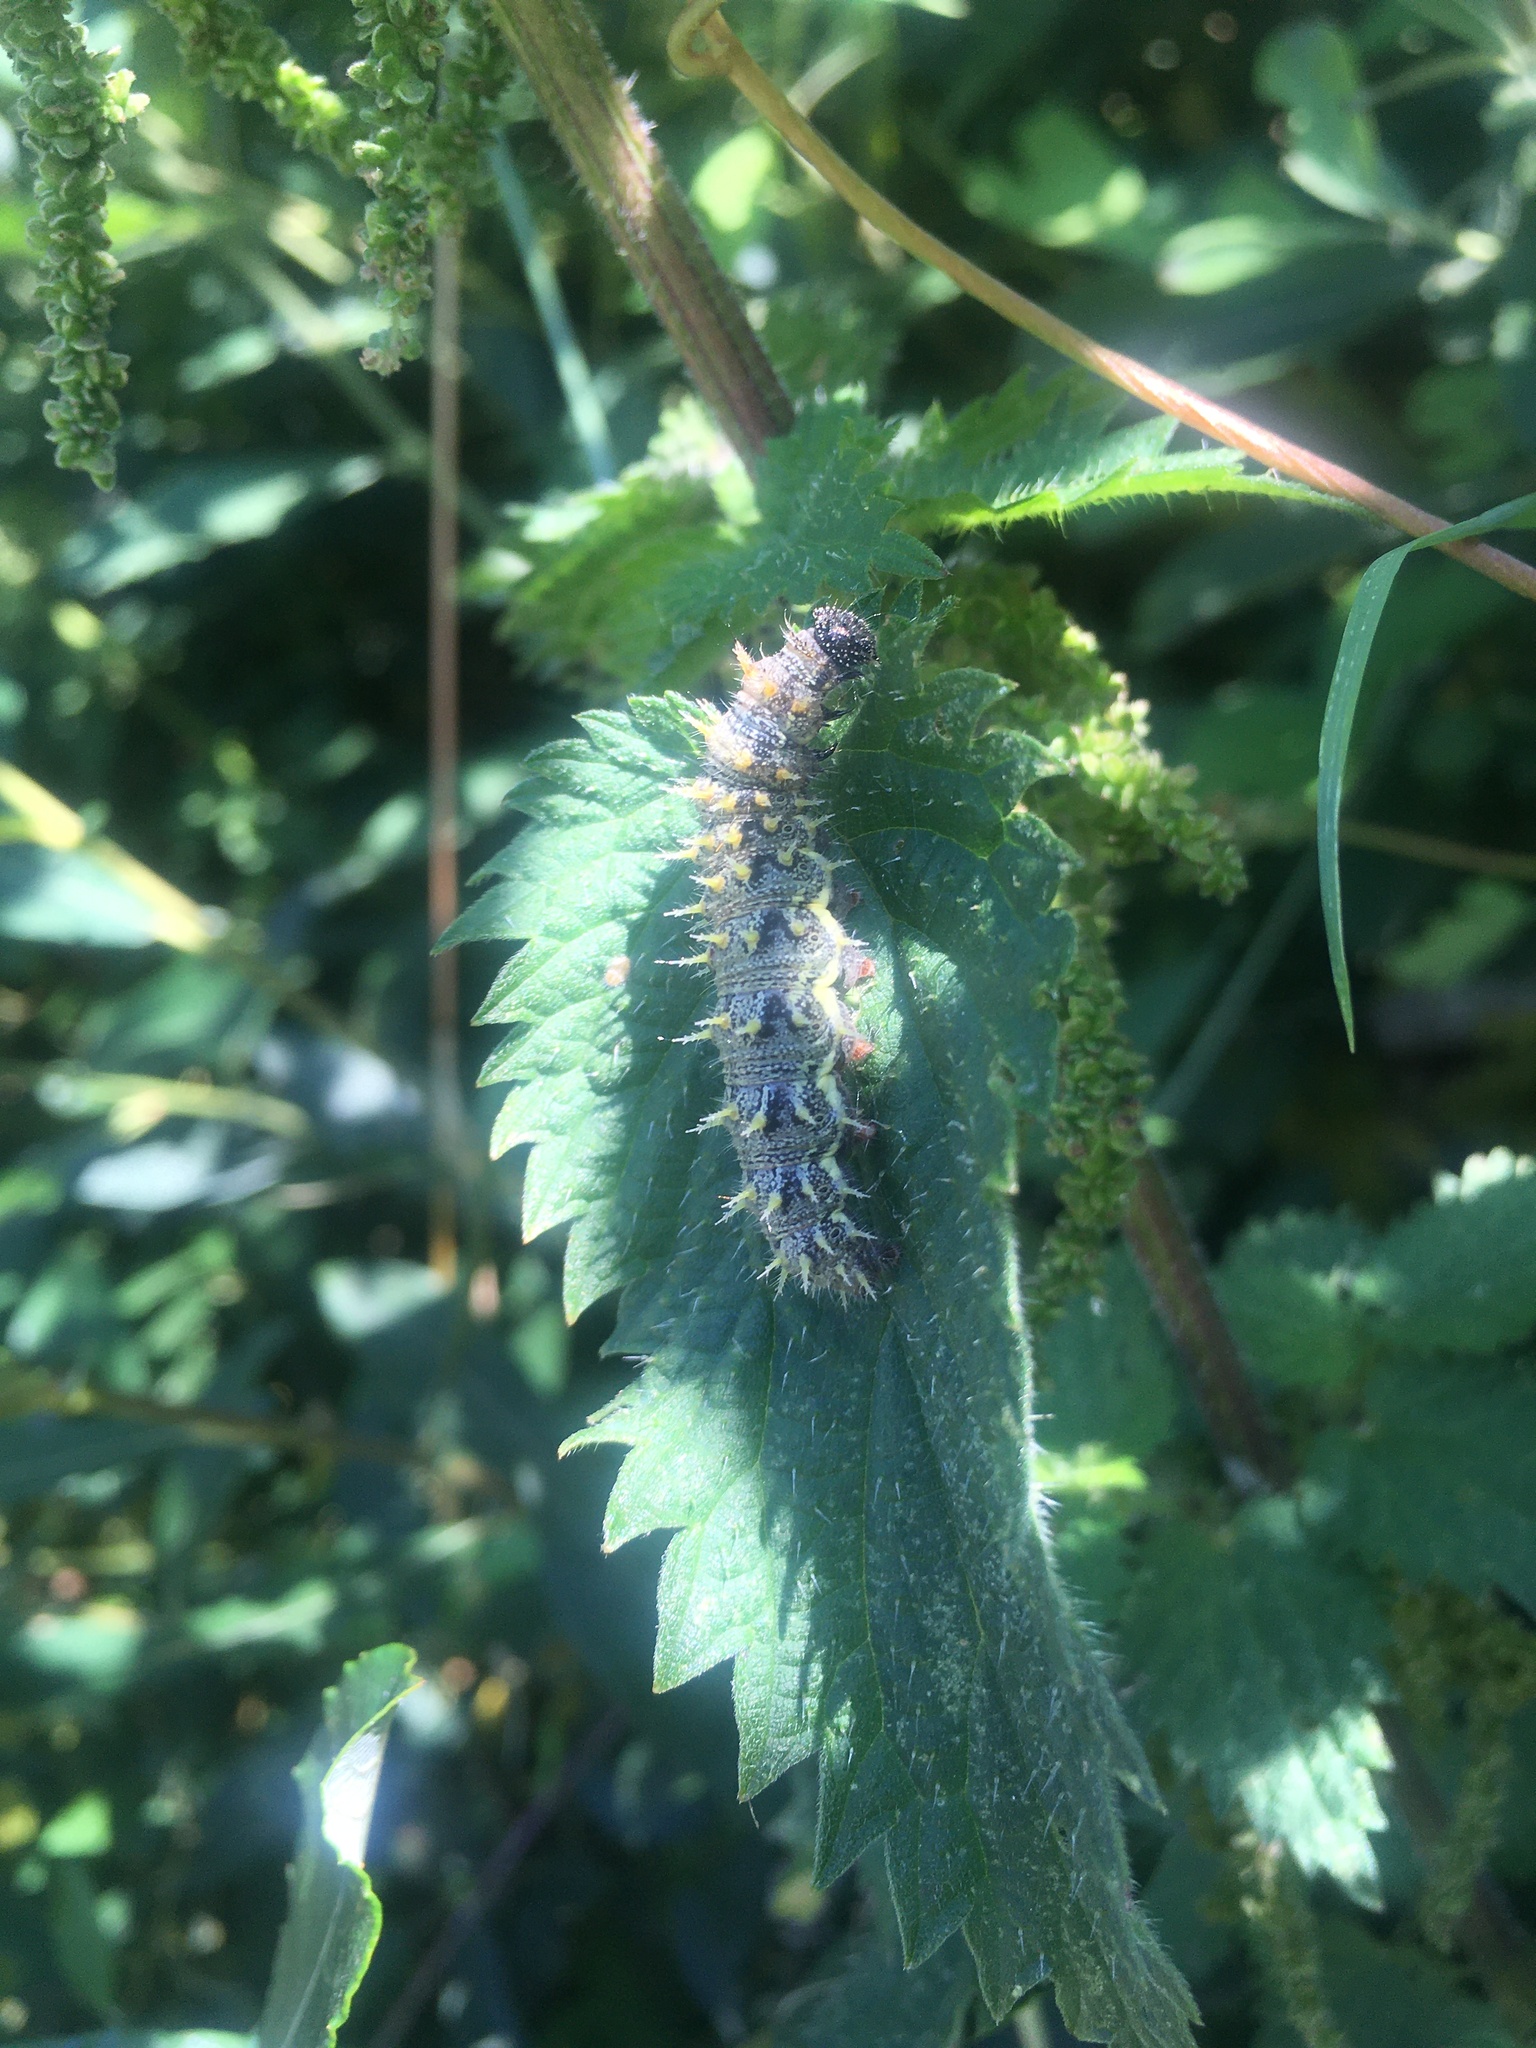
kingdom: Animalia
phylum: Arthropoda
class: Insecta
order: Lepidoptera
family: Nymphalidae
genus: Vanessa
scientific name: Vanessa atalanta
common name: Red admiral
